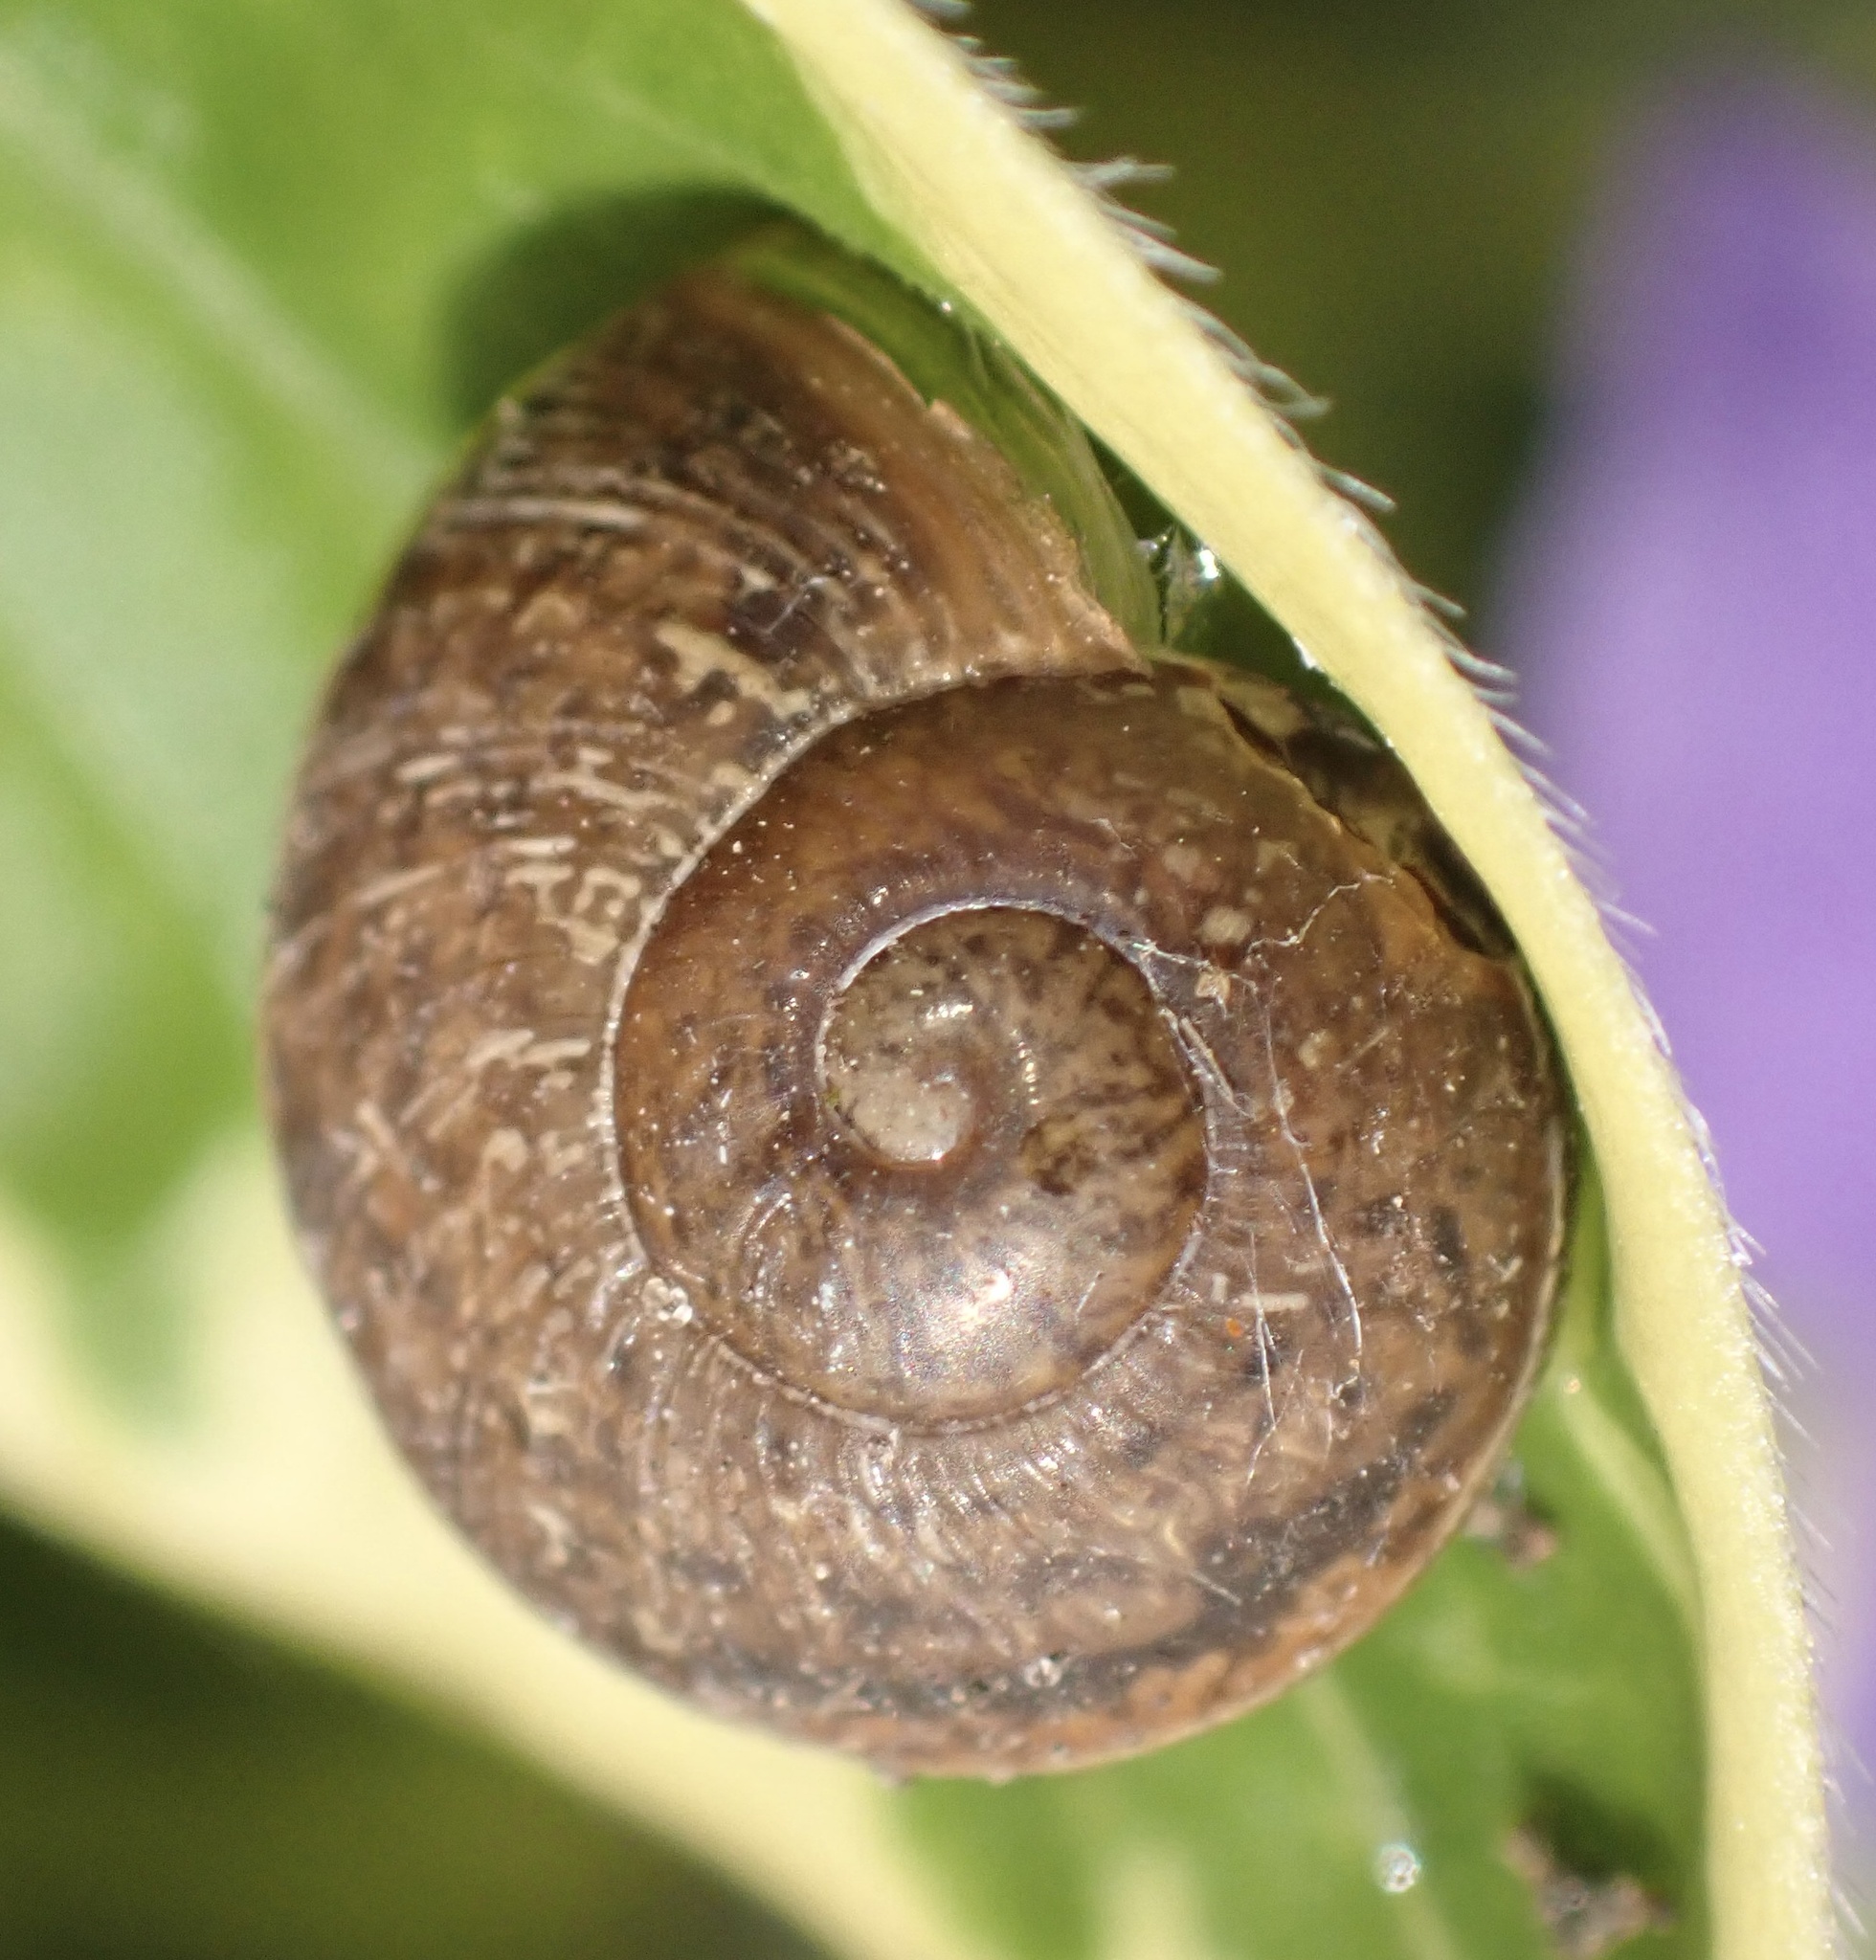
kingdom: Animalia
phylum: Mollusca
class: Gastropoda
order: Stylommatophora
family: Helicidae
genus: Cornu
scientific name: Cornu aspersum
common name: Brown garden snail
